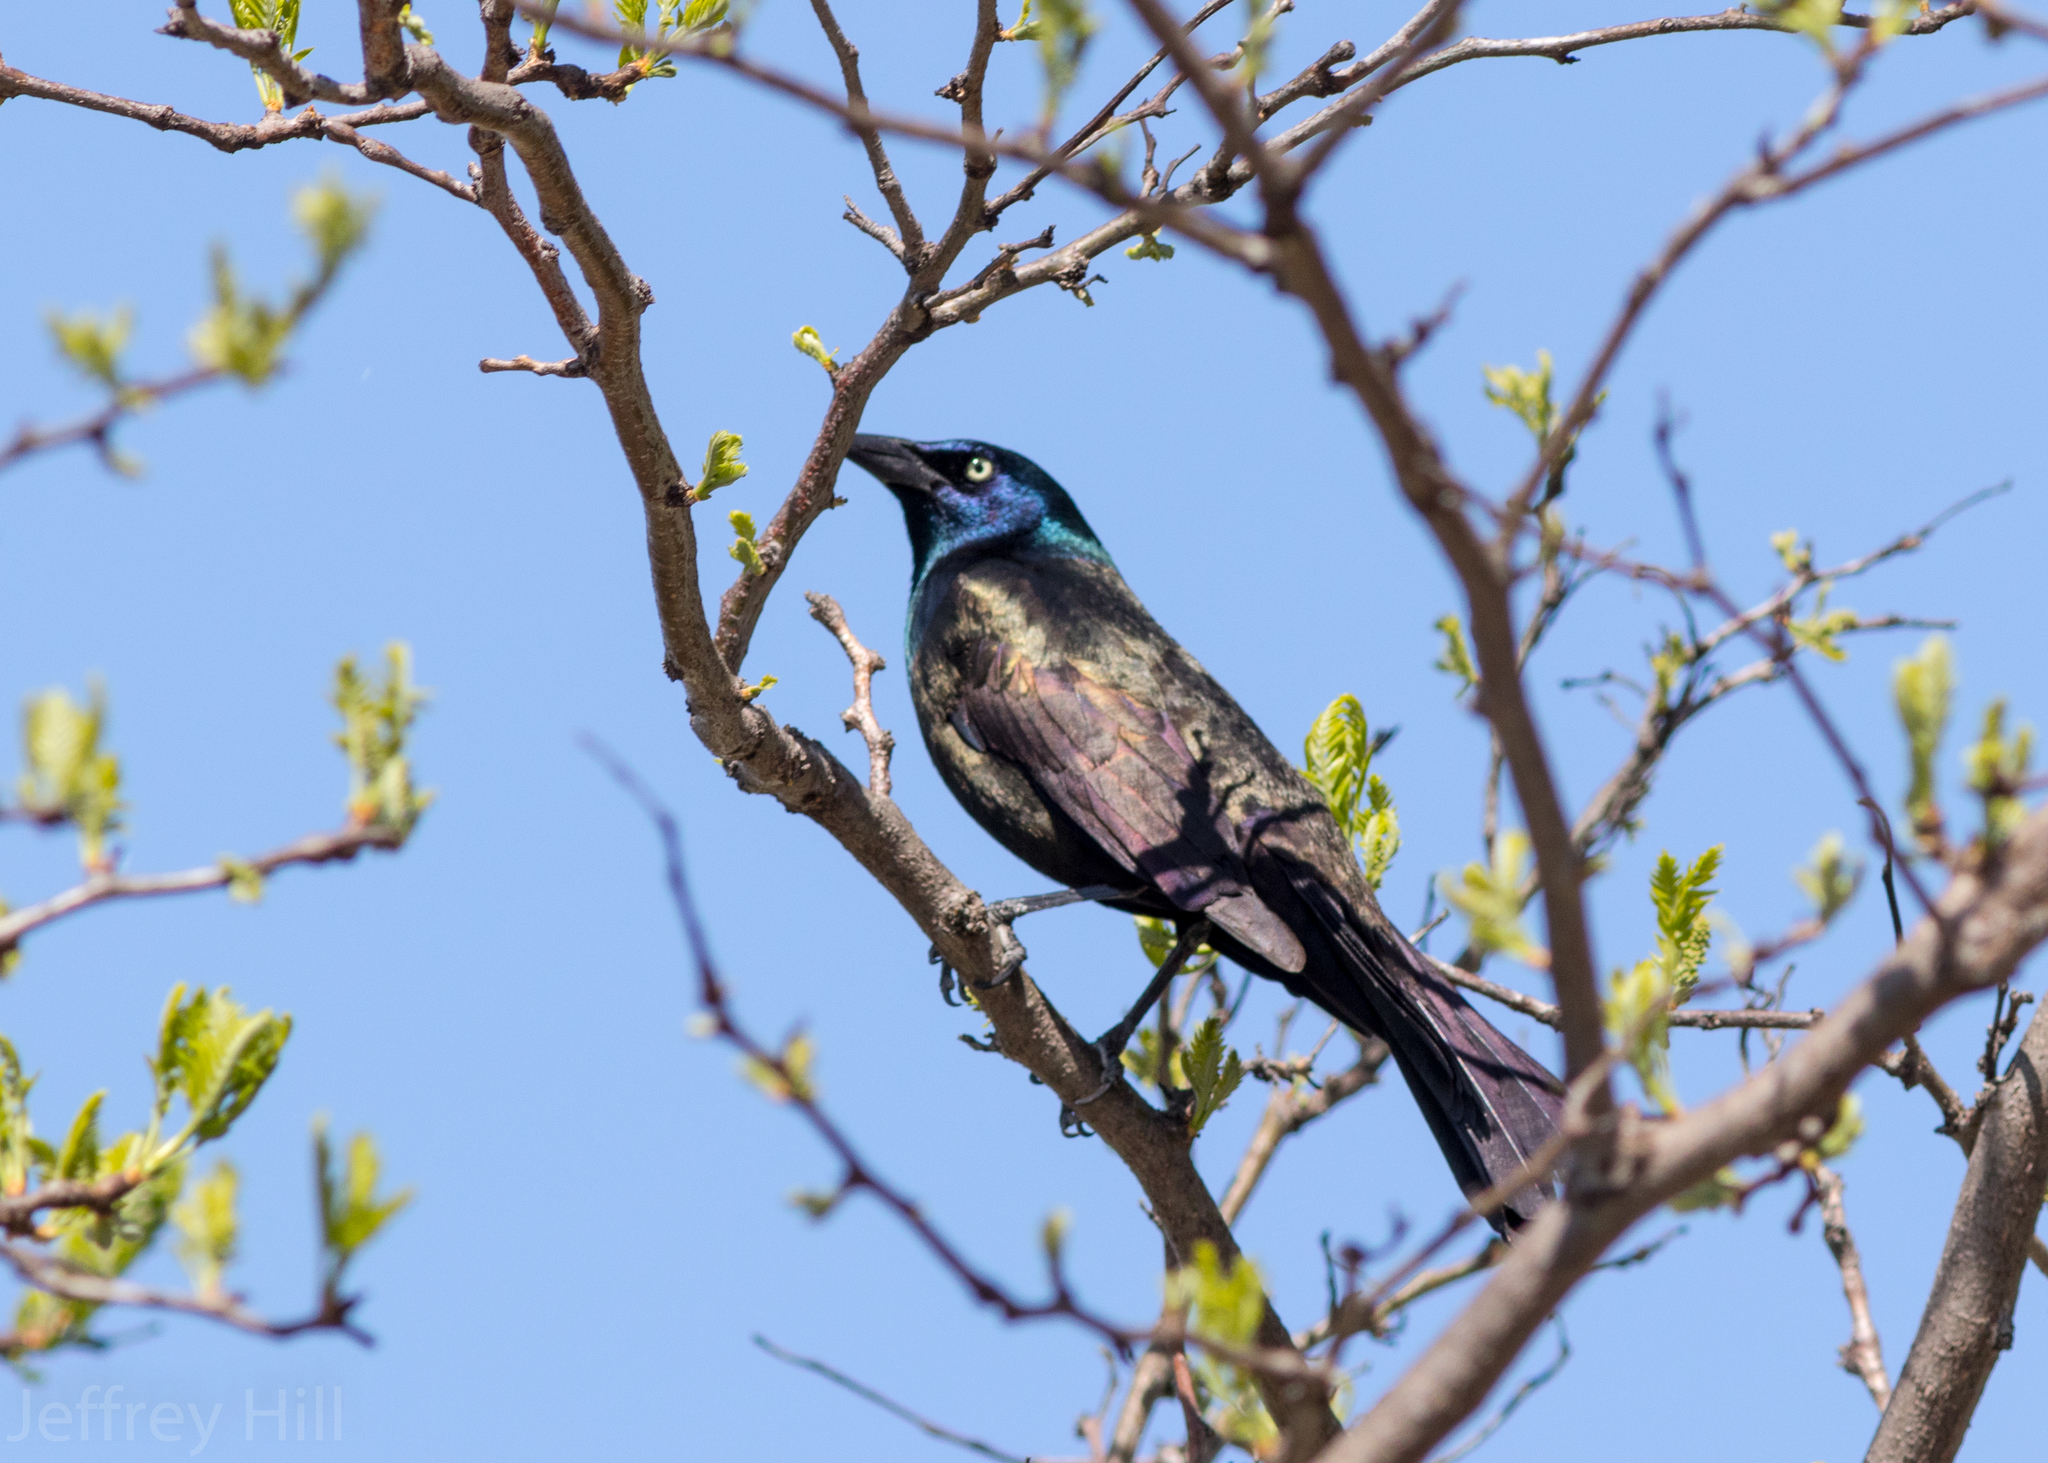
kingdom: Animalia
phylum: Chordata
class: Aves
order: Passeriformes
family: Icteridae
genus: Quiscalus
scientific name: Quiscalus quiscula
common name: Common grackle
